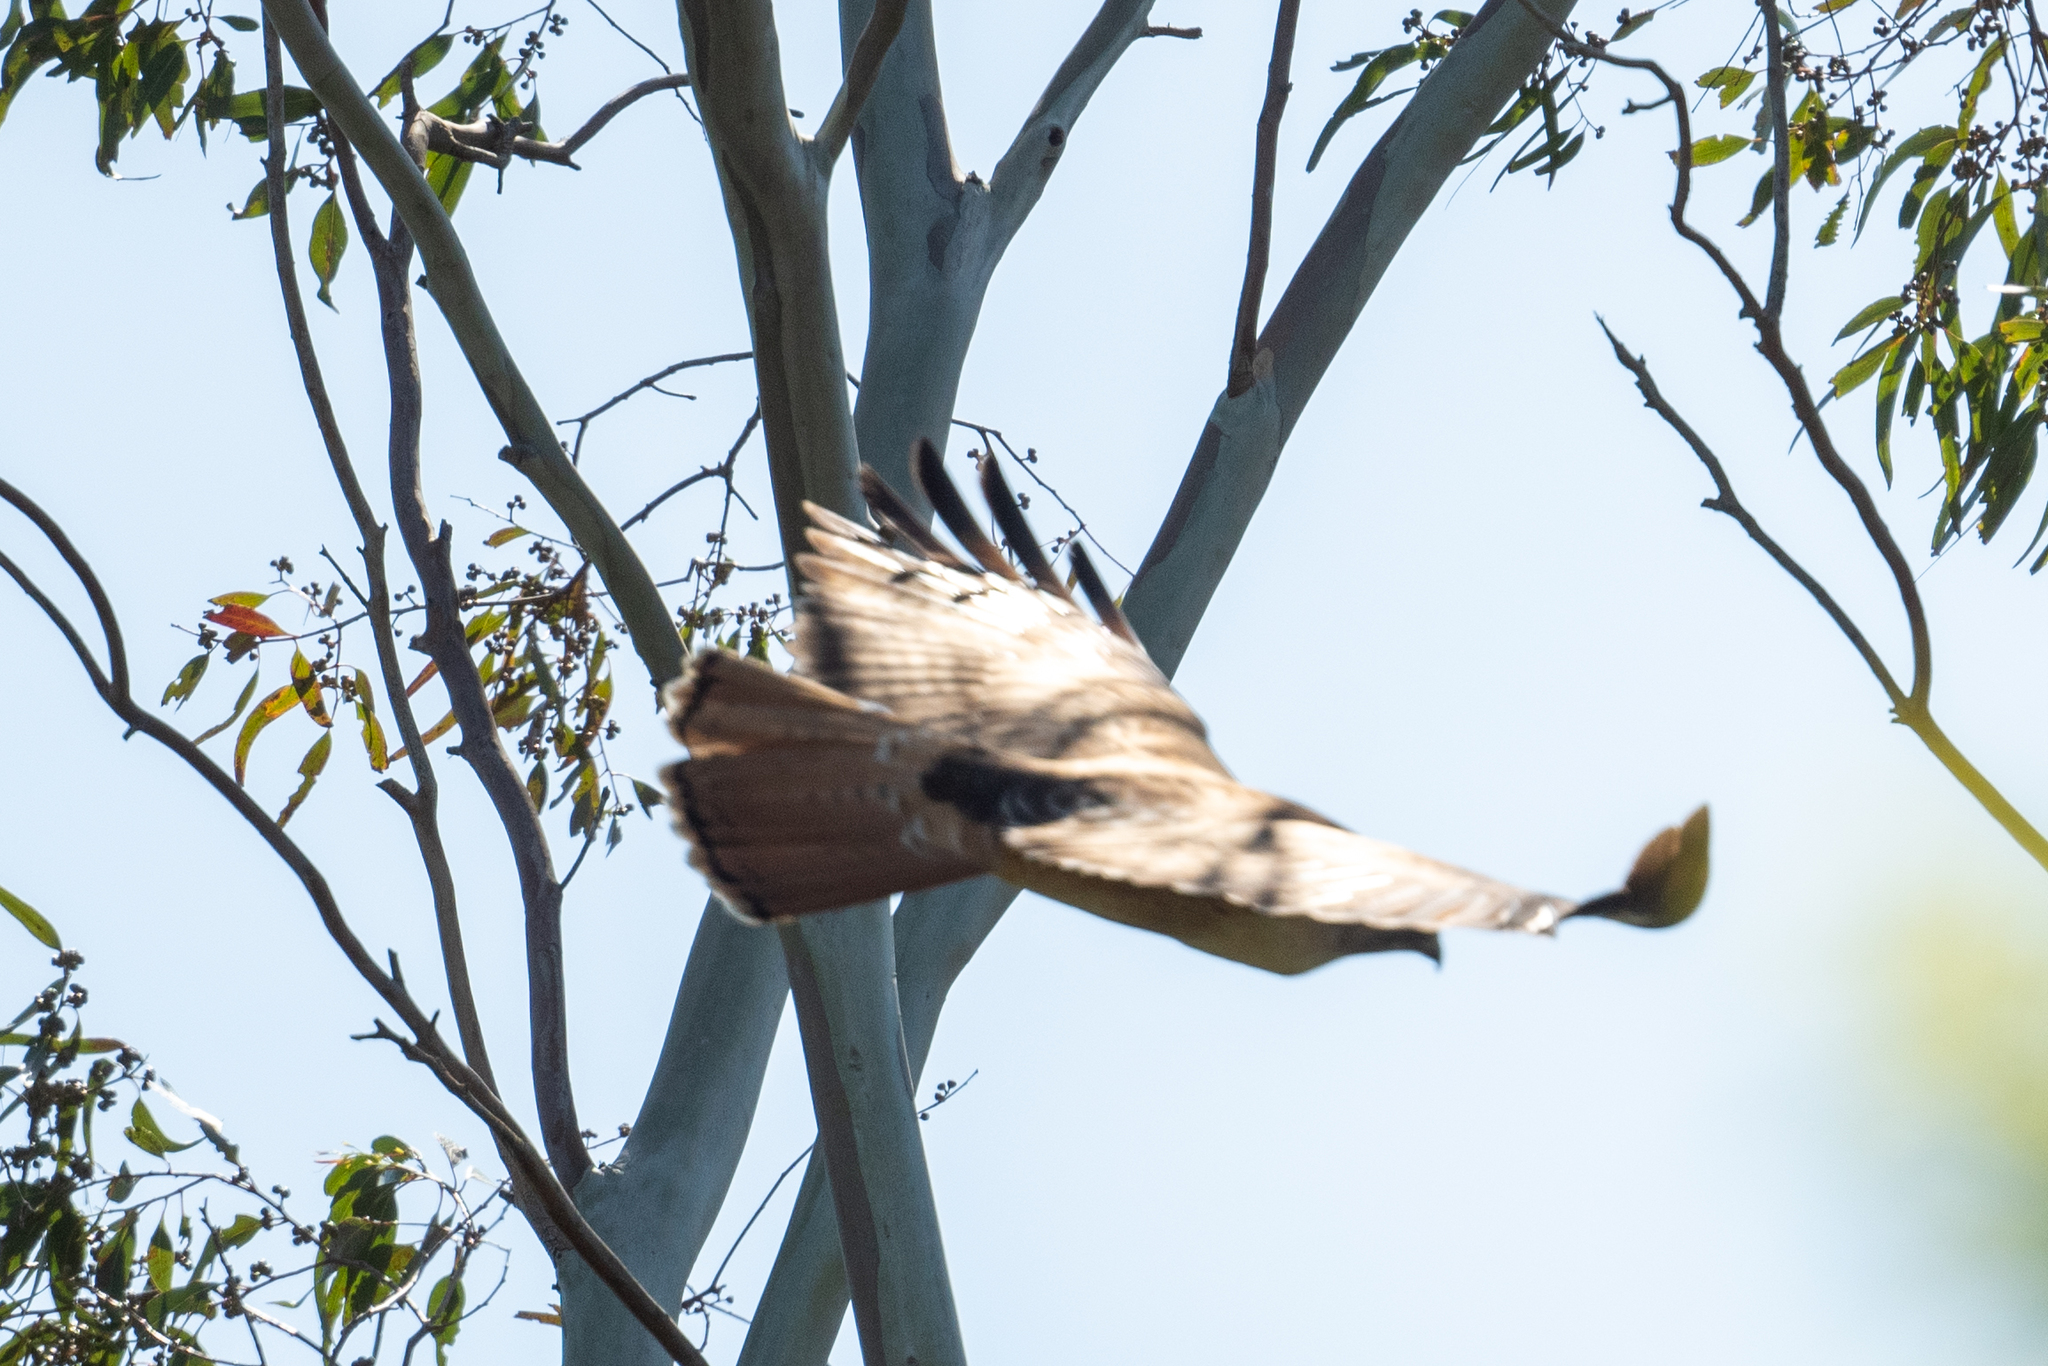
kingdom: Animalia
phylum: Chordata
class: Aves
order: Accipitriformes
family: Accipitridae
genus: Buteo
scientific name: Buteo jamaicensis
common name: Red-tailed hawk
